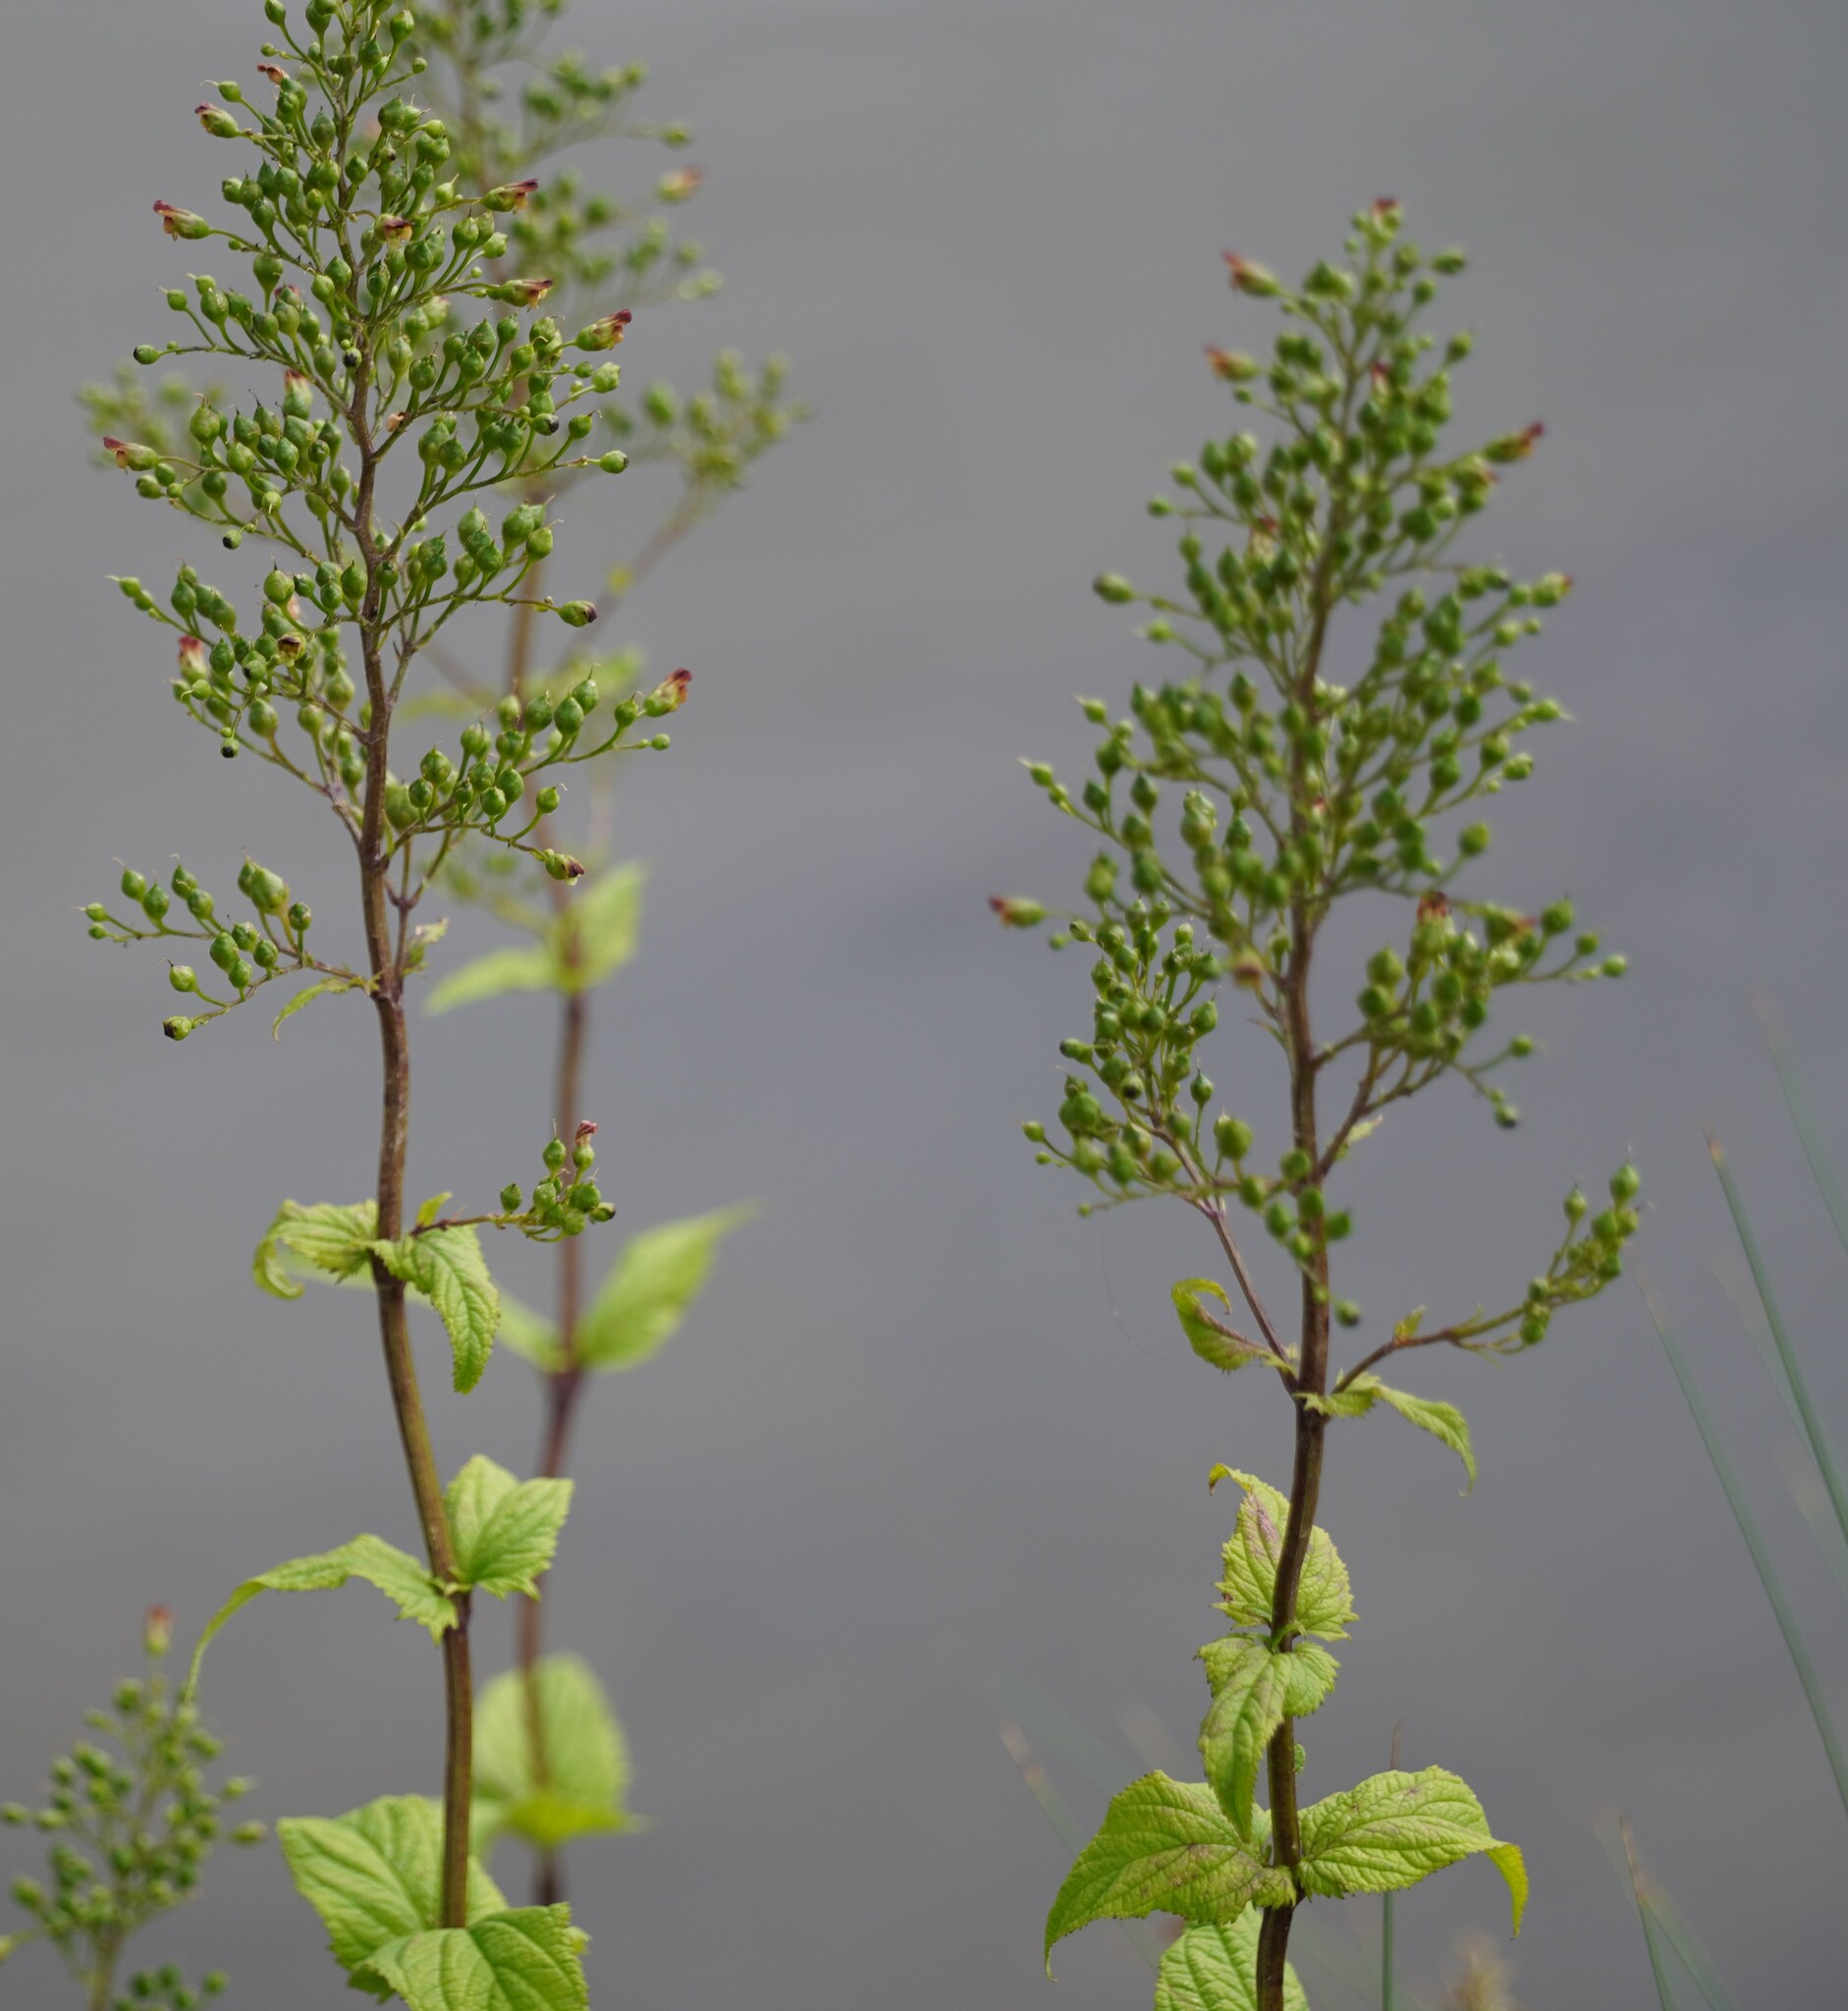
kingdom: Plantae
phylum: Tracheophyta
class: Magnoliopsida
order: Lamiales
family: Scrophulariaceae
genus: Scrophularia
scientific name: Scrophularia nodosa
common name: Common figwort
